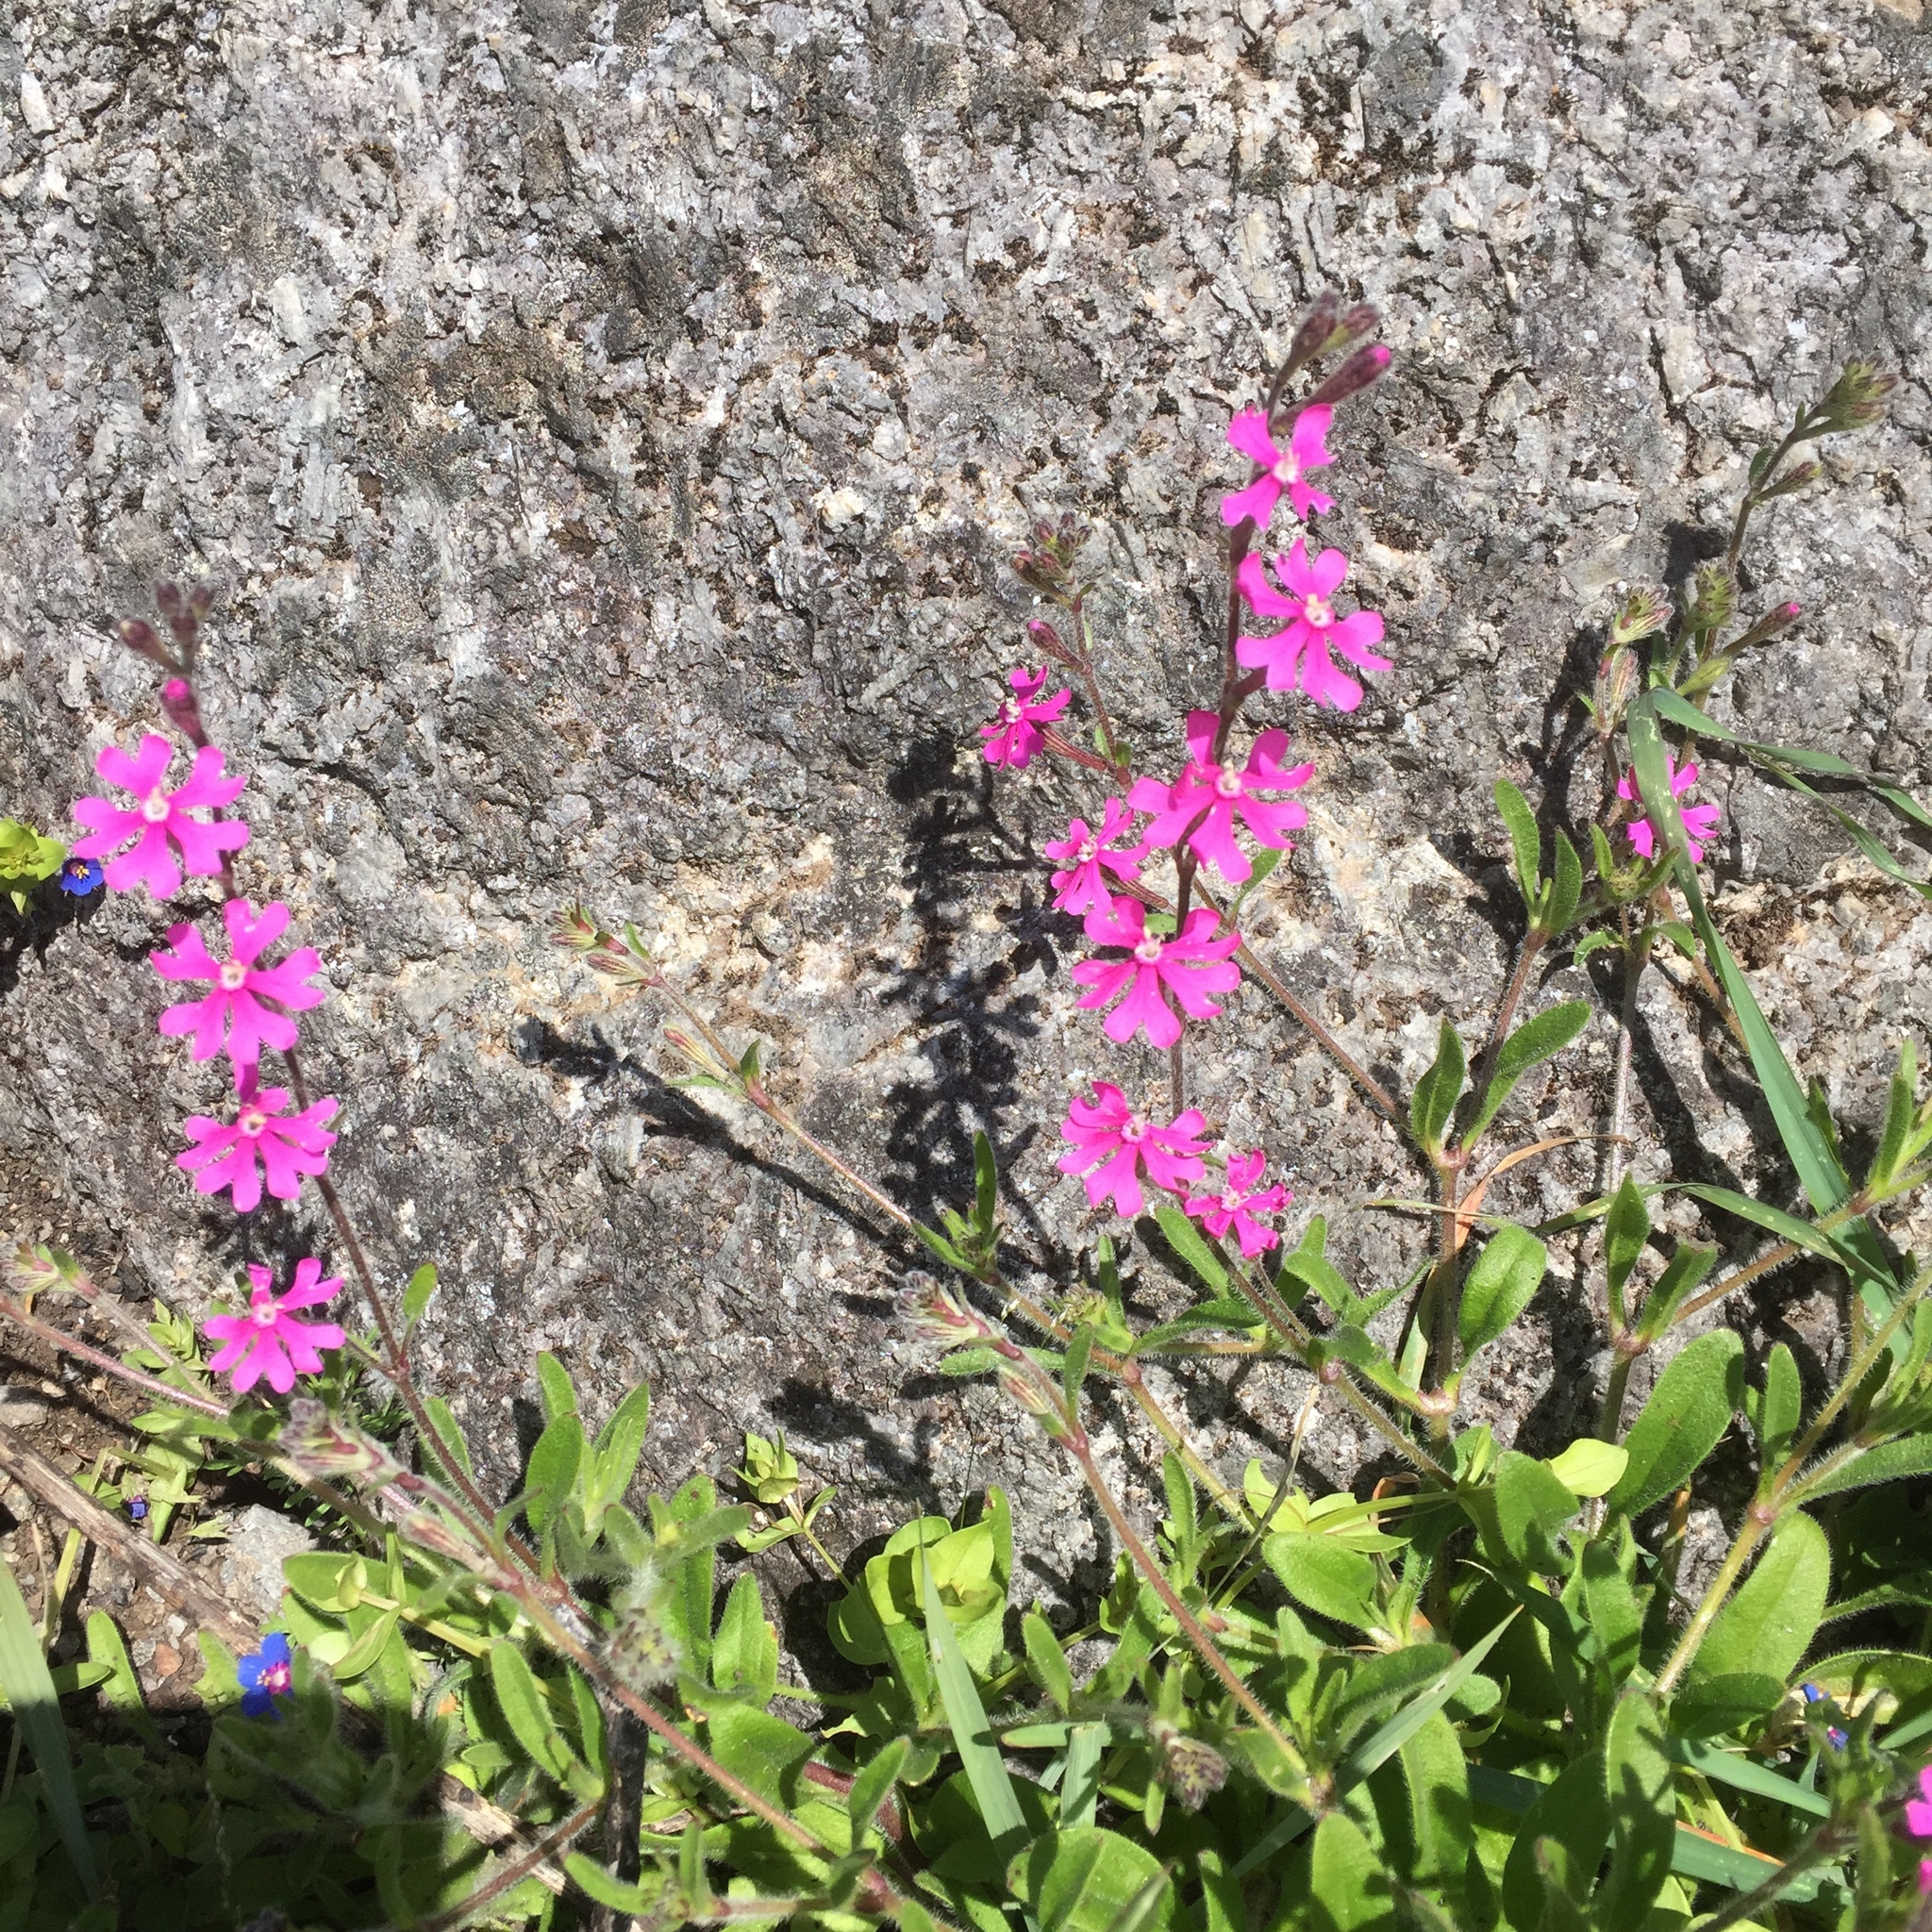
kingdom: Plantae
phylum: Tracheophyta
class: Magnoliopsida
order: Caryophyllales
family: Caryophyllaceae
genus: Silene
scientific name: Silene colorata
